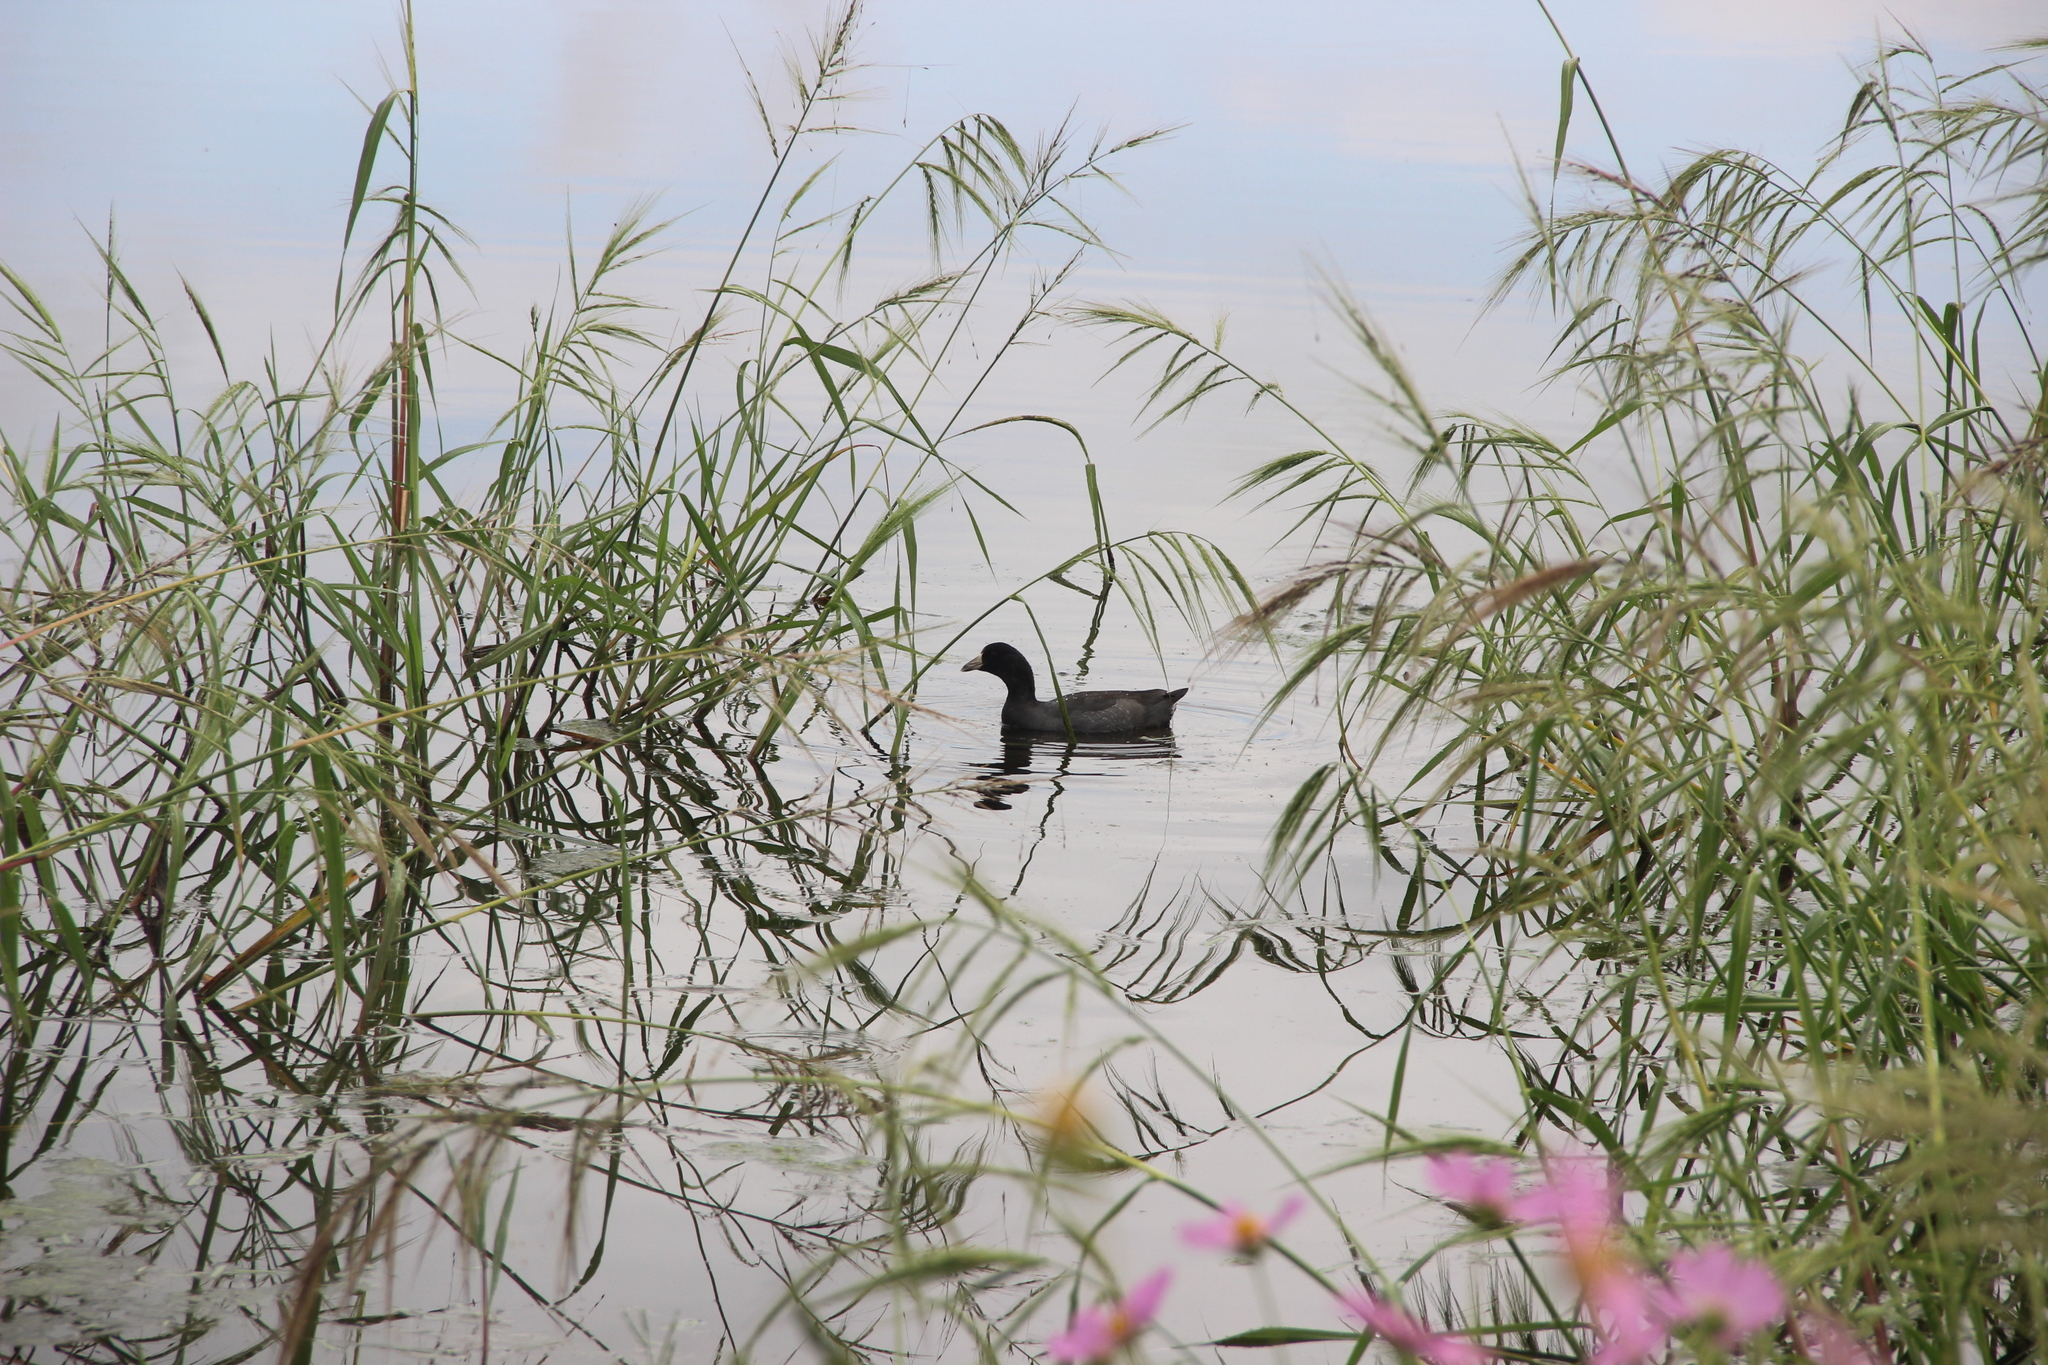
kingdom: Animalia
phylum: Chordata
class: Aves
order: Gruiformes
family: Rallidae
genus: Fulica
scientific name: Fulica americana
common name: American coot
